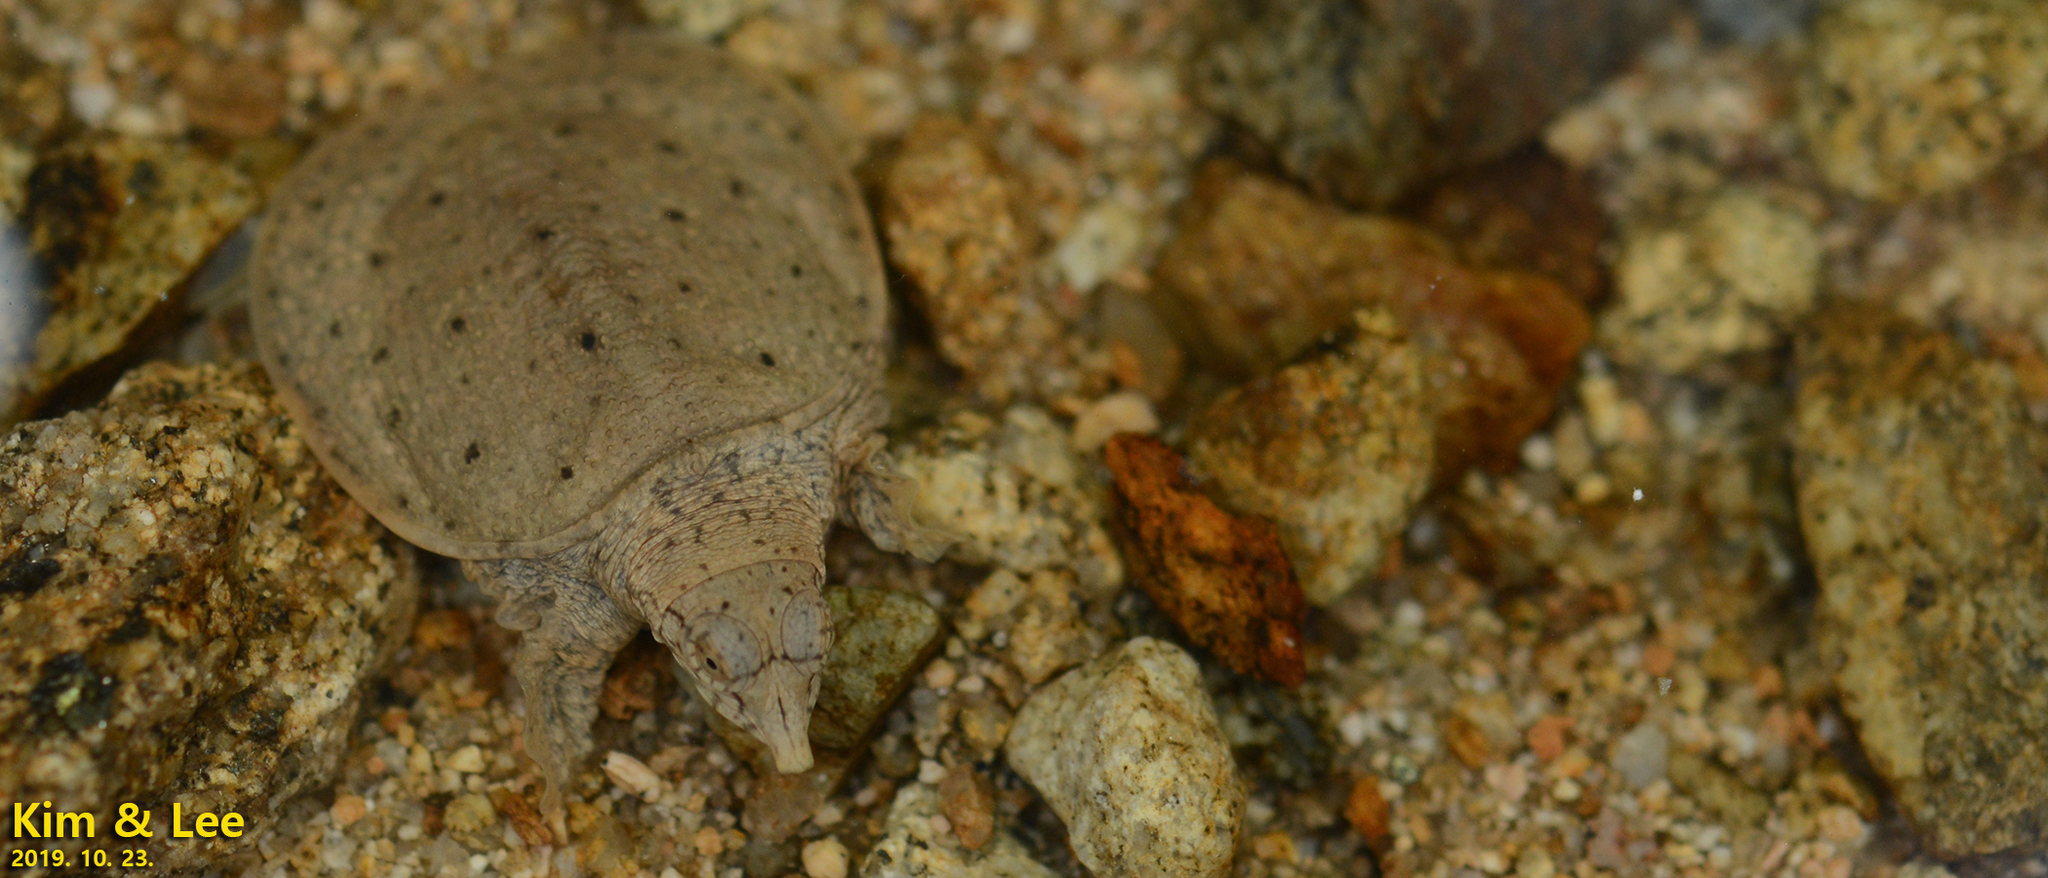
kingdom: Animalia
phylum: Chordata
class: Testudines
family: Trionychidae
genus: Pelodiscus
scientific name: Pelodiscus maackii
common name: Northern chinese softshell turtle
